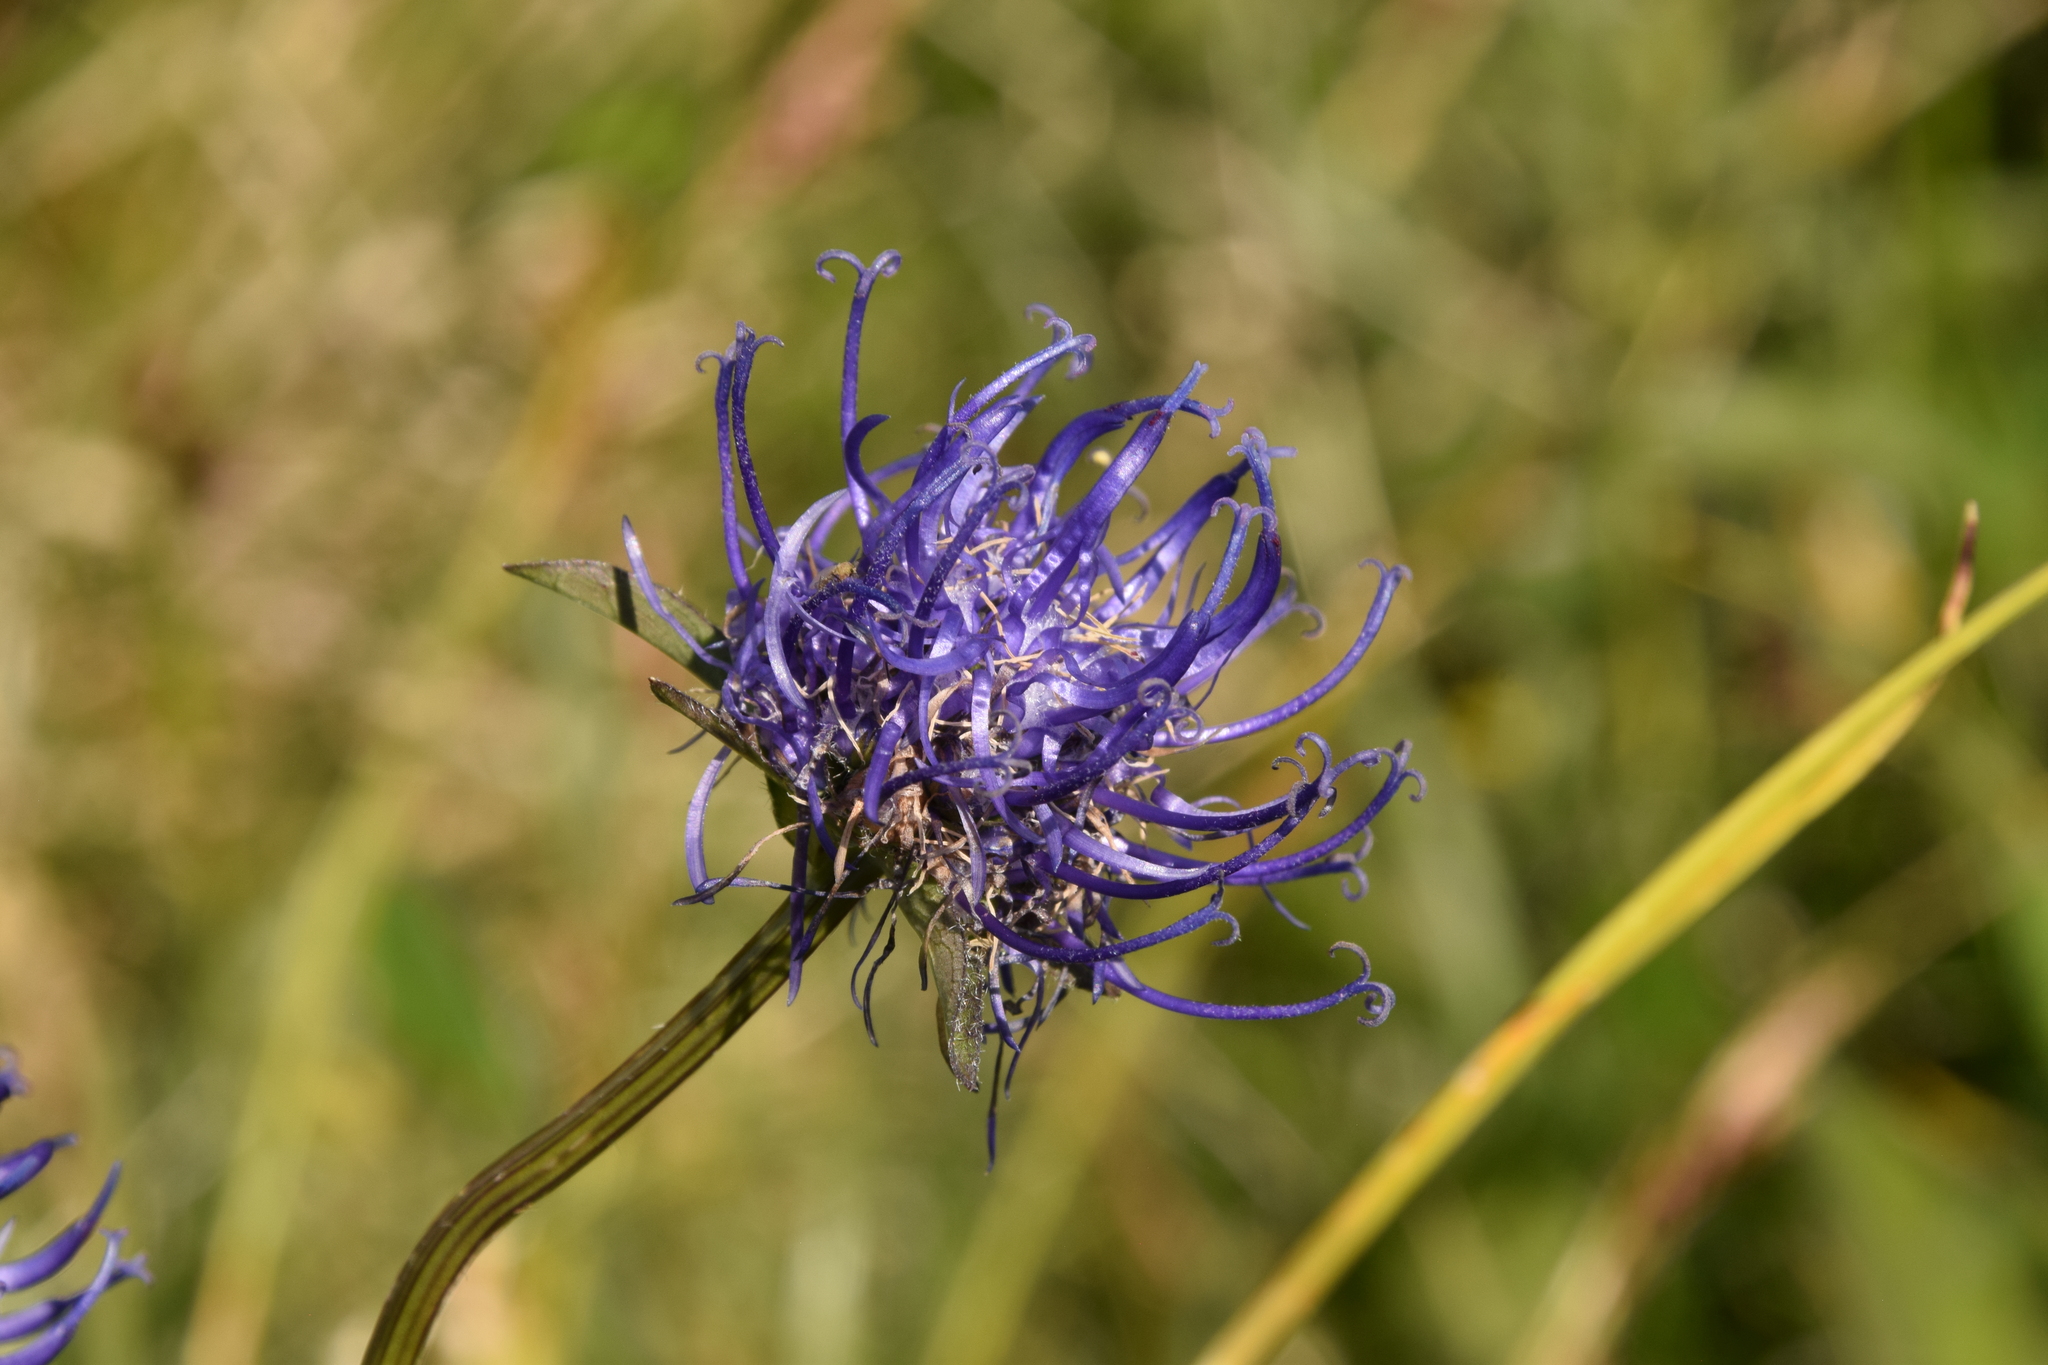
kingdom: Plantae
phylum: Tracheophyta
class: Magnoliopsida
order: Asterales
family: Campanulaceae
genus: Phyteuma
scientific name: Phyteuma orbiculare
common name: Round-headed rampion
